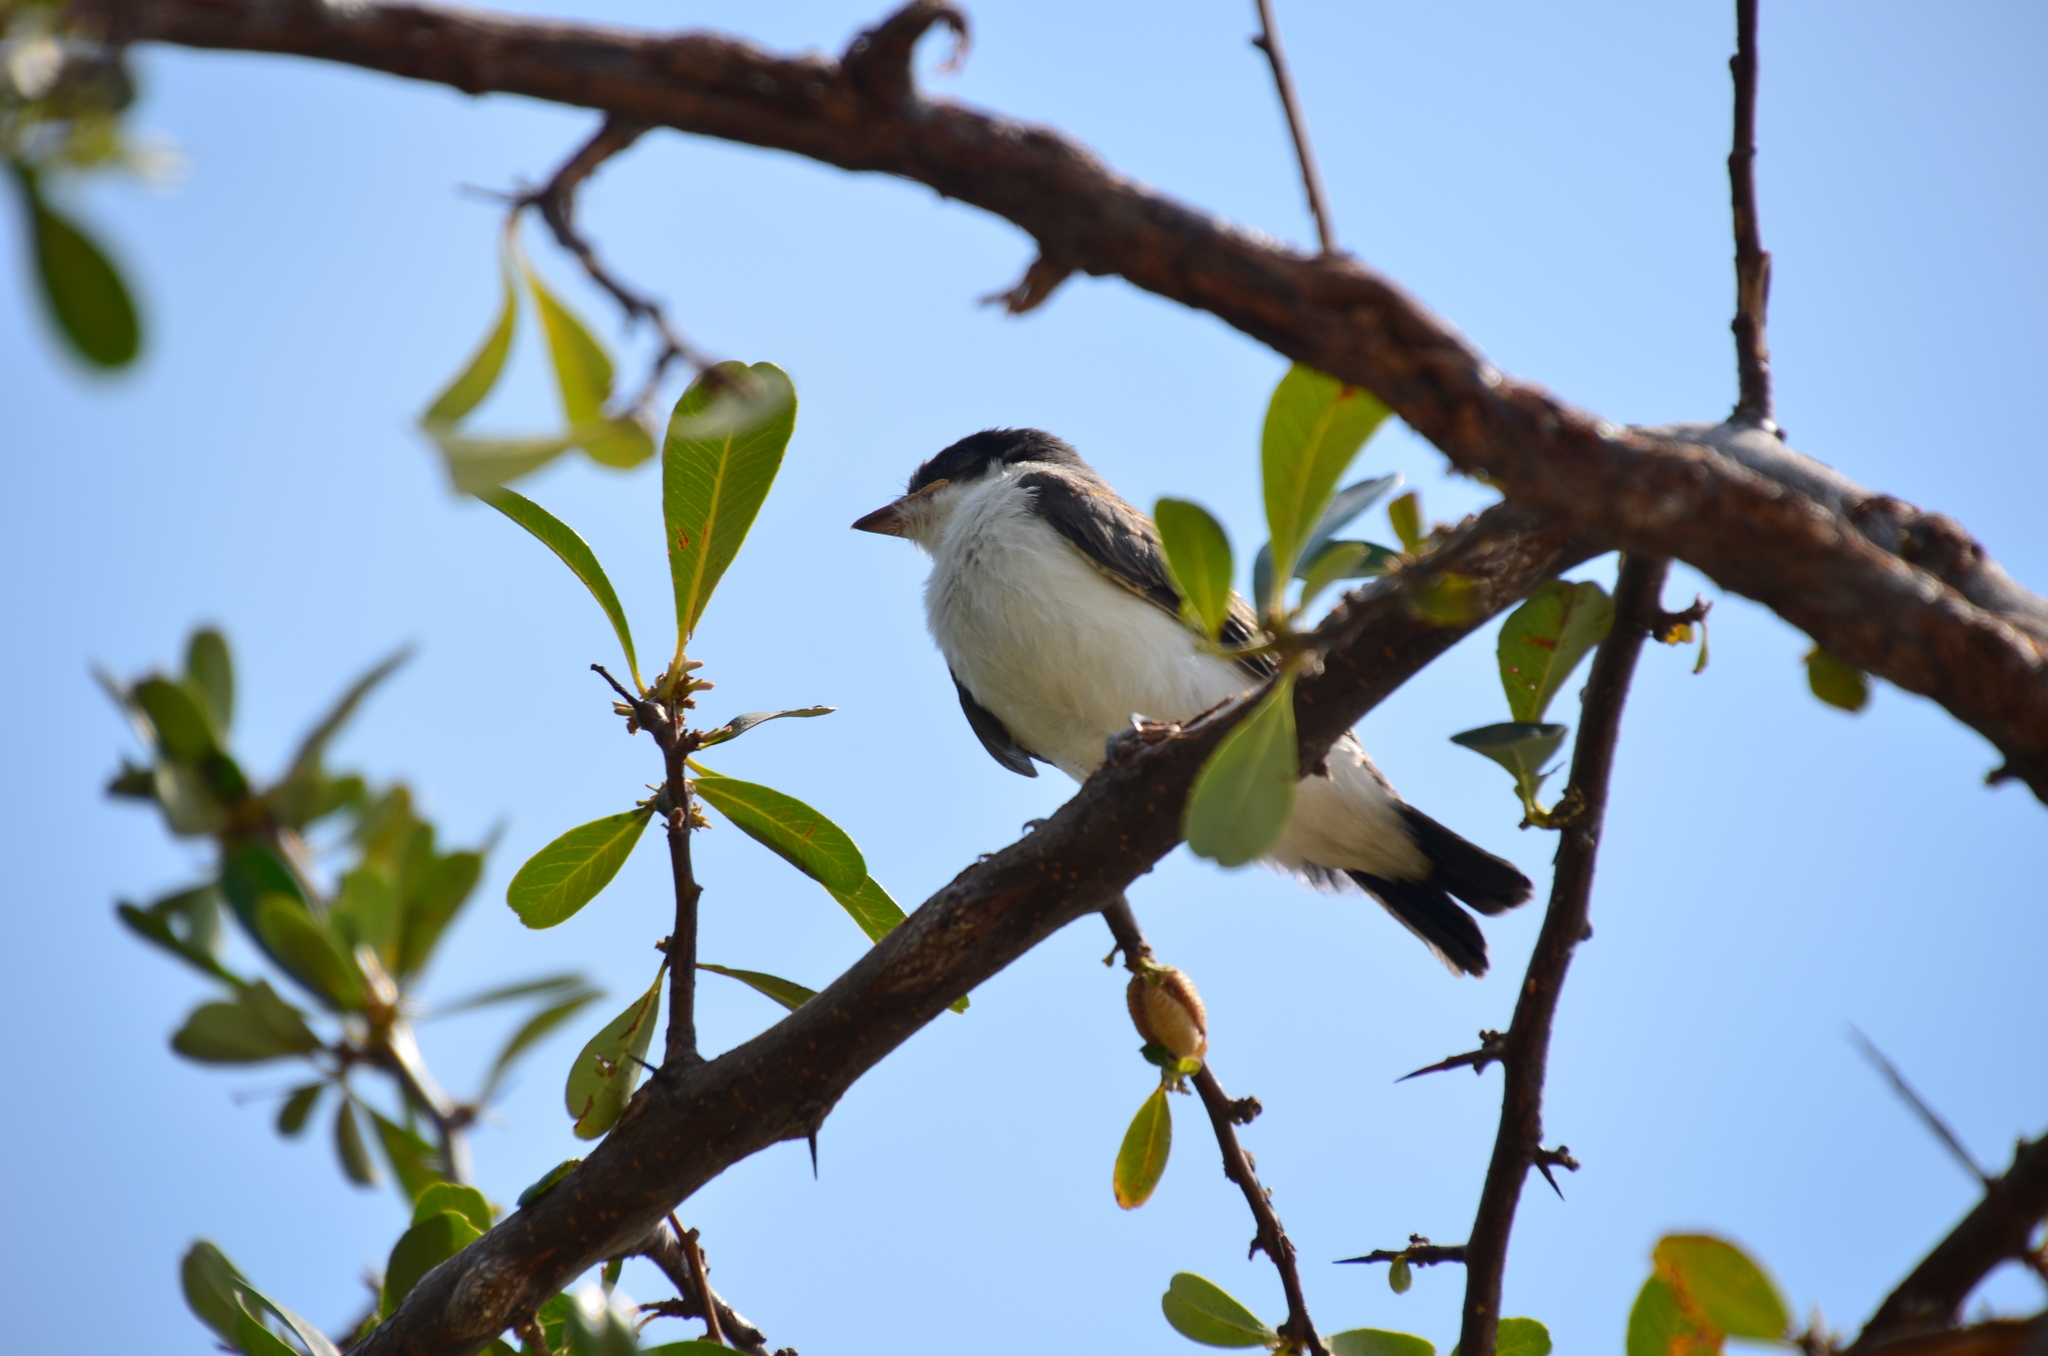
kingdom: Animalia
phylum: Chordata
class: Aves
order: Passeriformes
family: Tyrannidae
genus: Tyrannus
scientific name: Tyrannus savana
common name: Fork-tailed flycatcher
